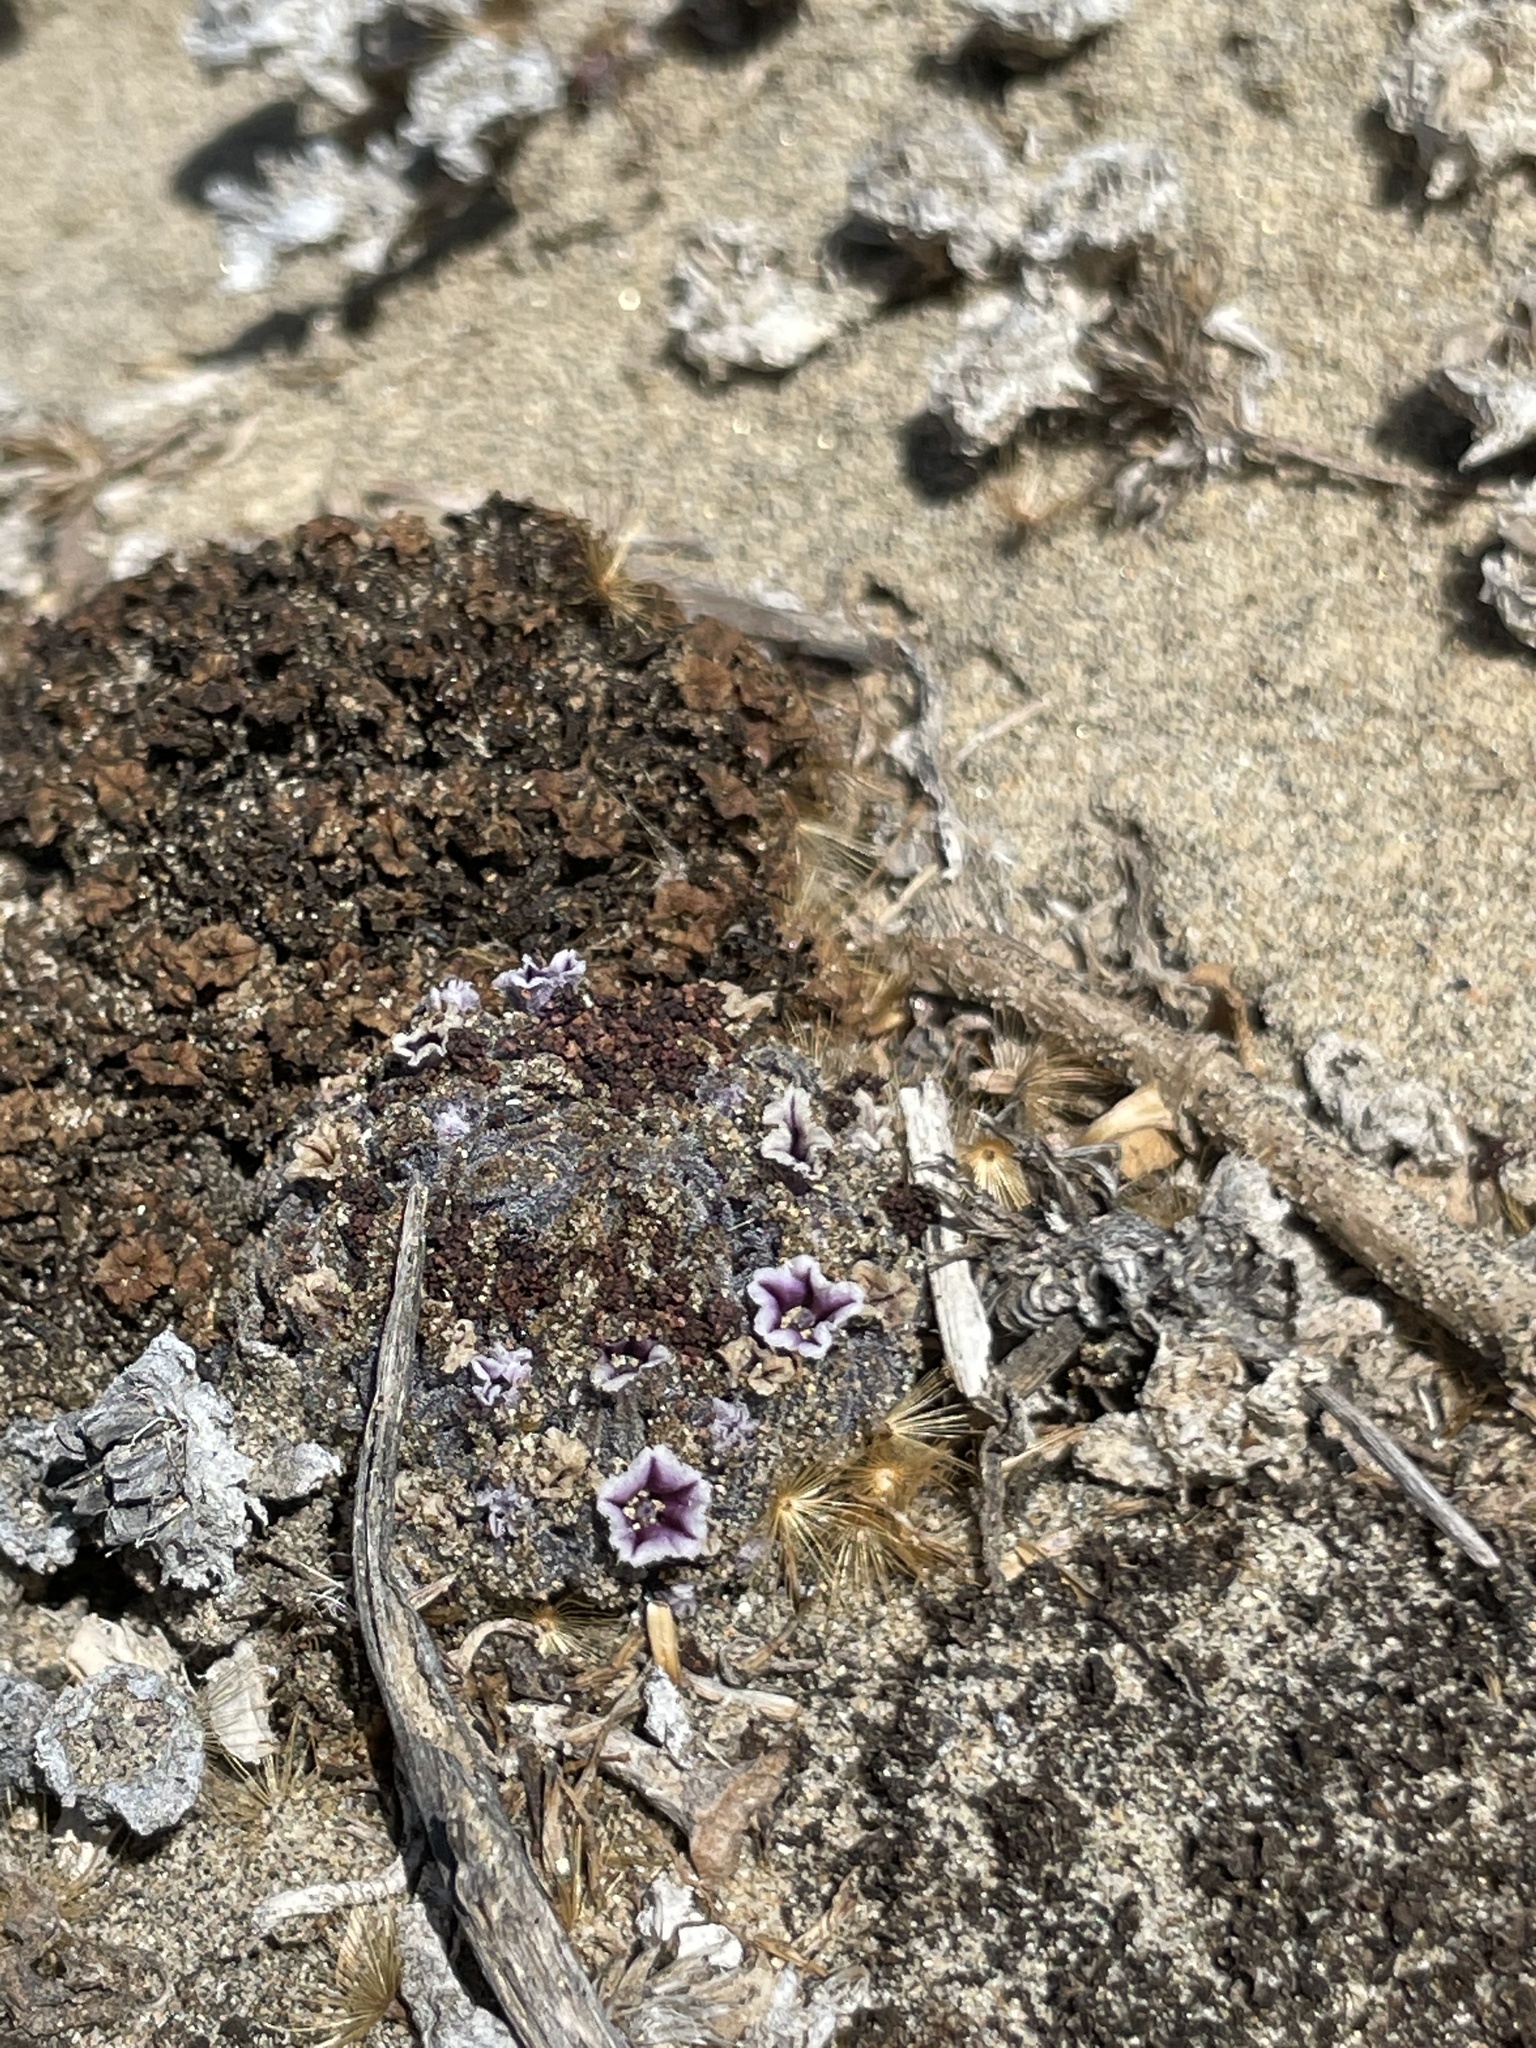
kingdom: Plantae
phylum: Tracheophyta
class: Magnoliopsida
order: Boraginales
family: Lennoaceae
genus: Pholisma
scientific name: Pholisma arenarium
